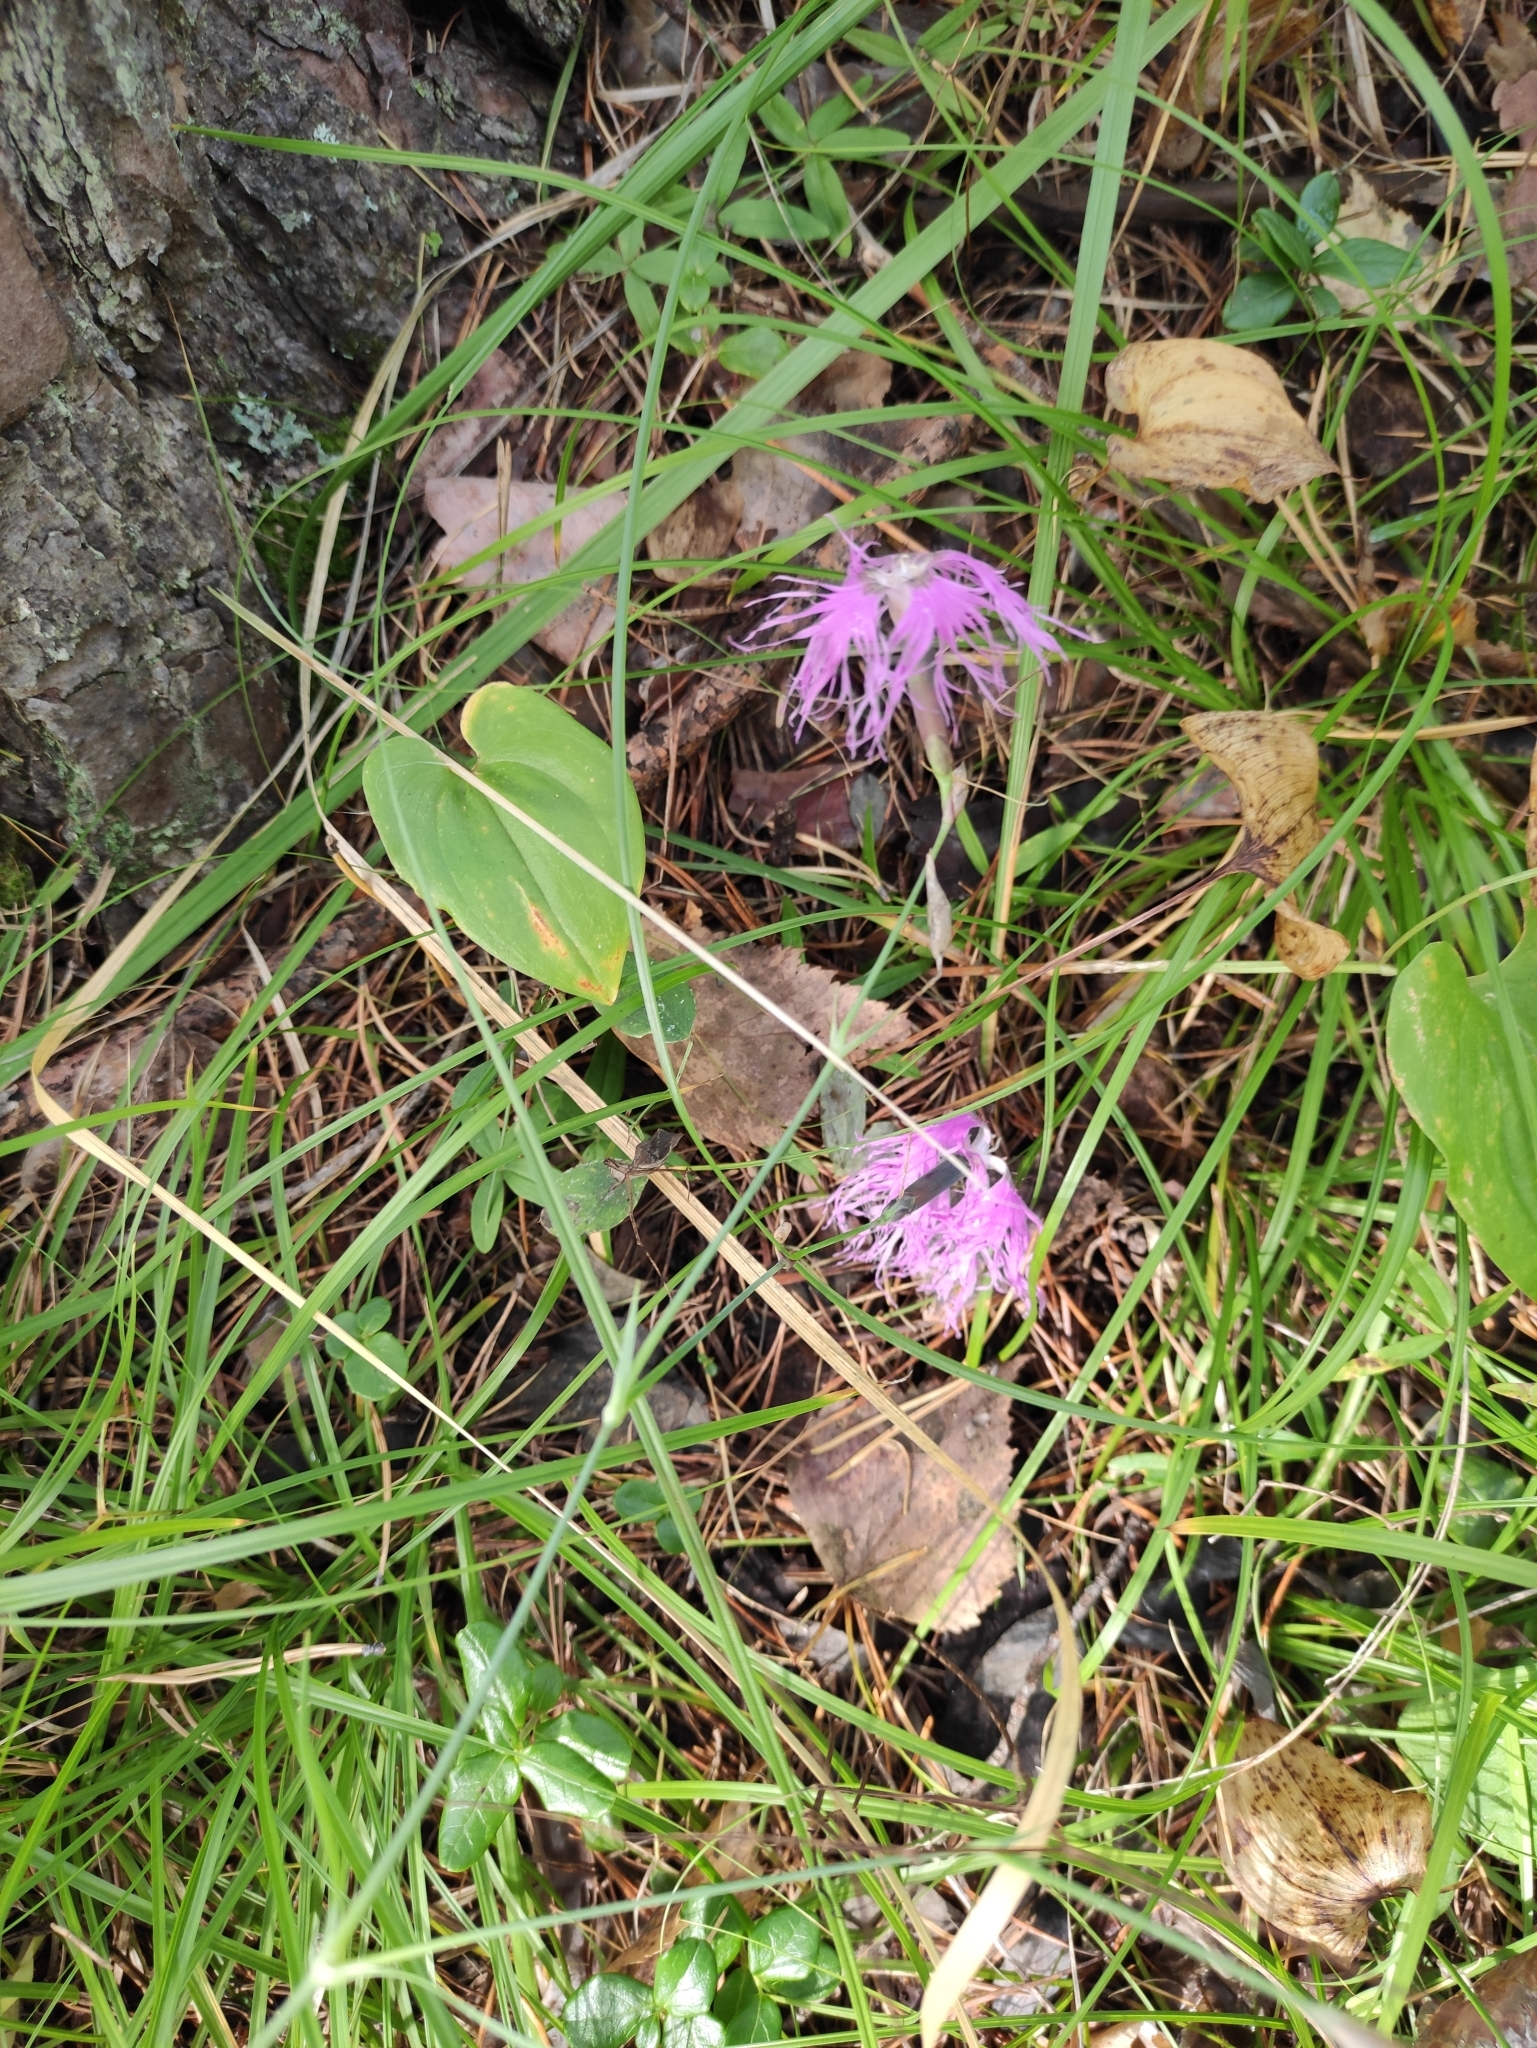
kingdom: Plantae
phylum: Tracheophyta
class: Magnoliopsida
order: Caryophyllales
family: Caryophyllaceae
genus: Dianthus
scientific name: Dianthus superbus
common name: Fringed pink
